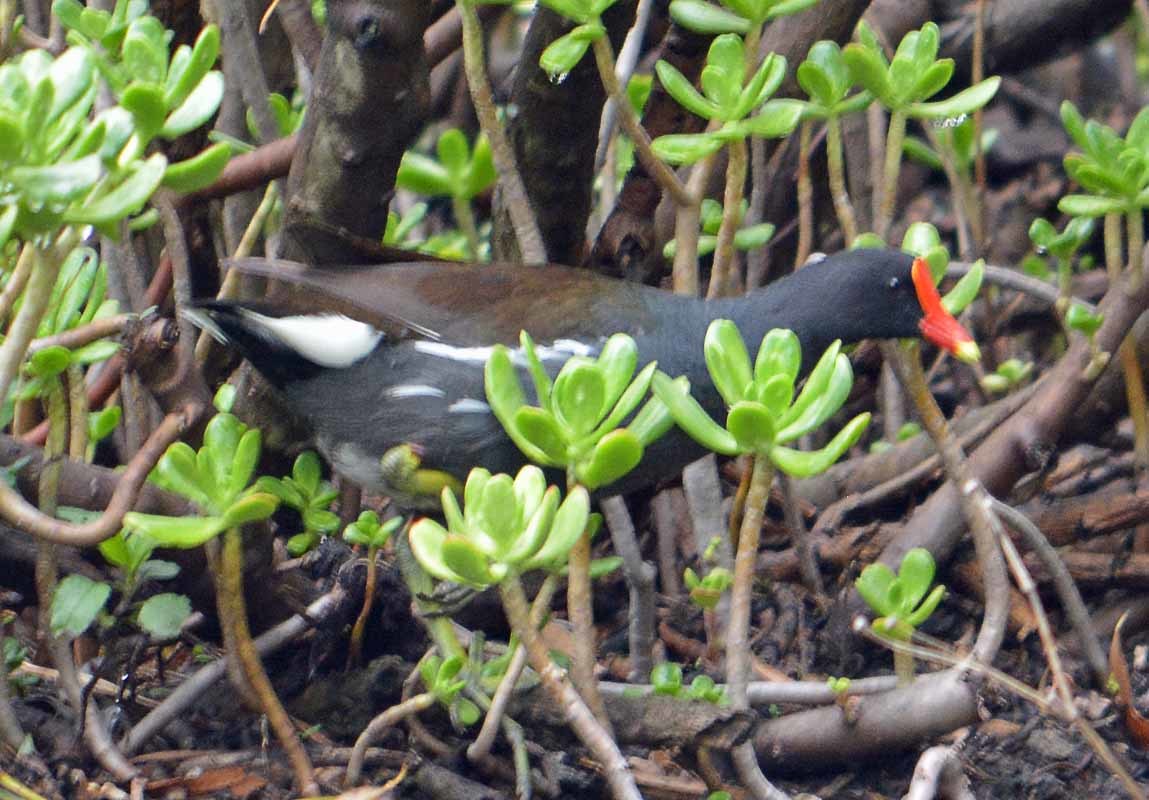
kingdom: Animalia
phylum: Chordata
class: Aves
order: Gruiformes
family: Rallidae
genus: Gallinula
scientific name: Gallinula chloropus
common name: Common moorhen
